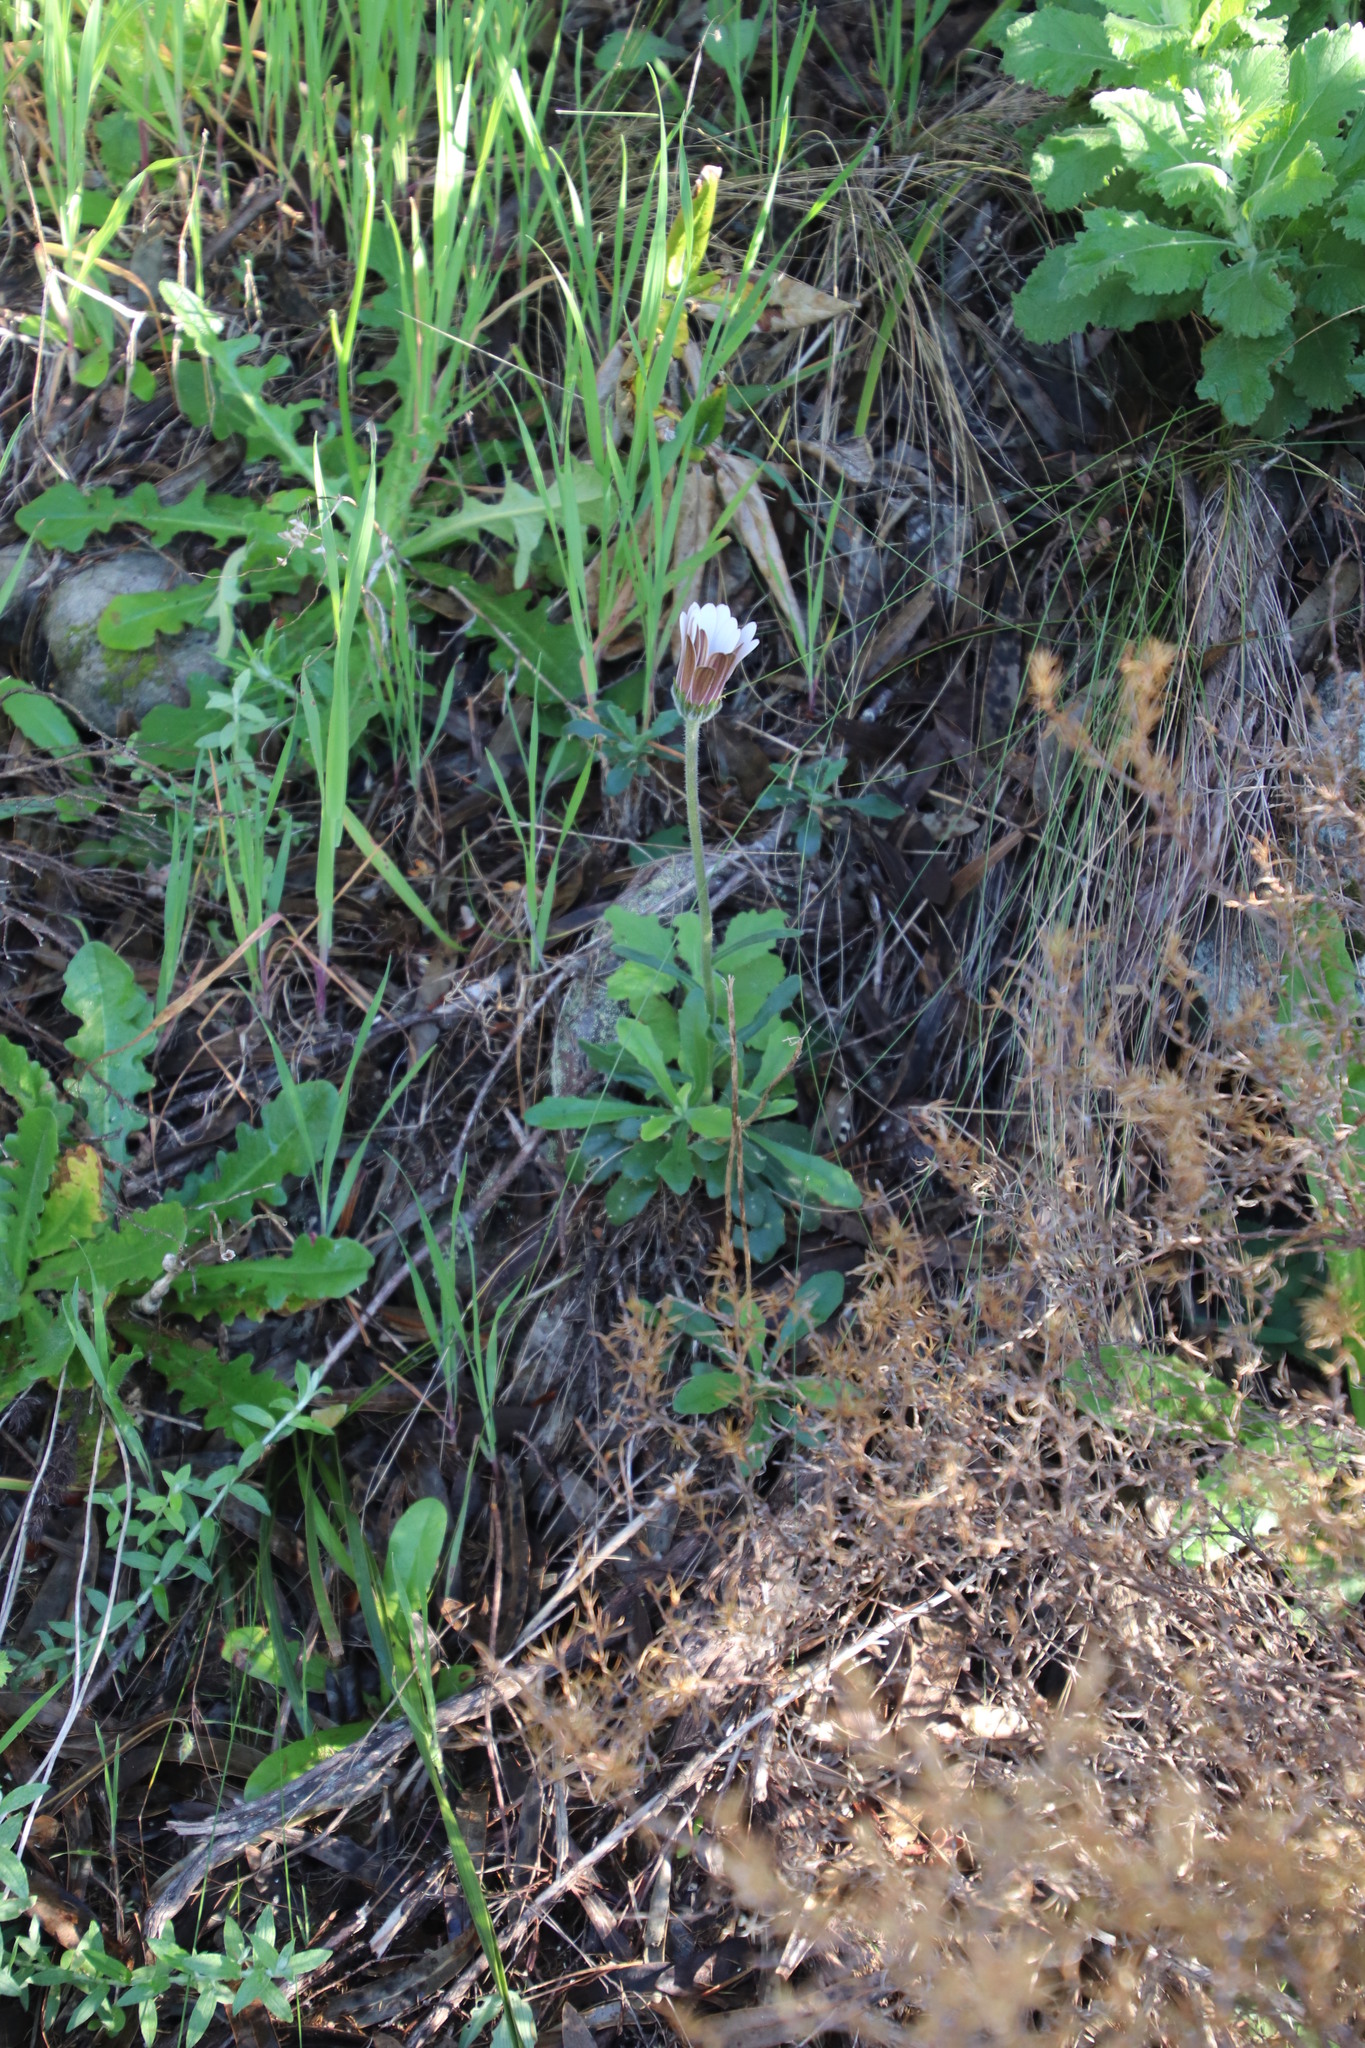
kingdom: Plantae
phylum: Tracheophyta
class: Magnoliopsida
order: Asterales
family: Asteraceae
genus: Dimorphotheca
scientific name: Dimorphotheca nudicaulis
